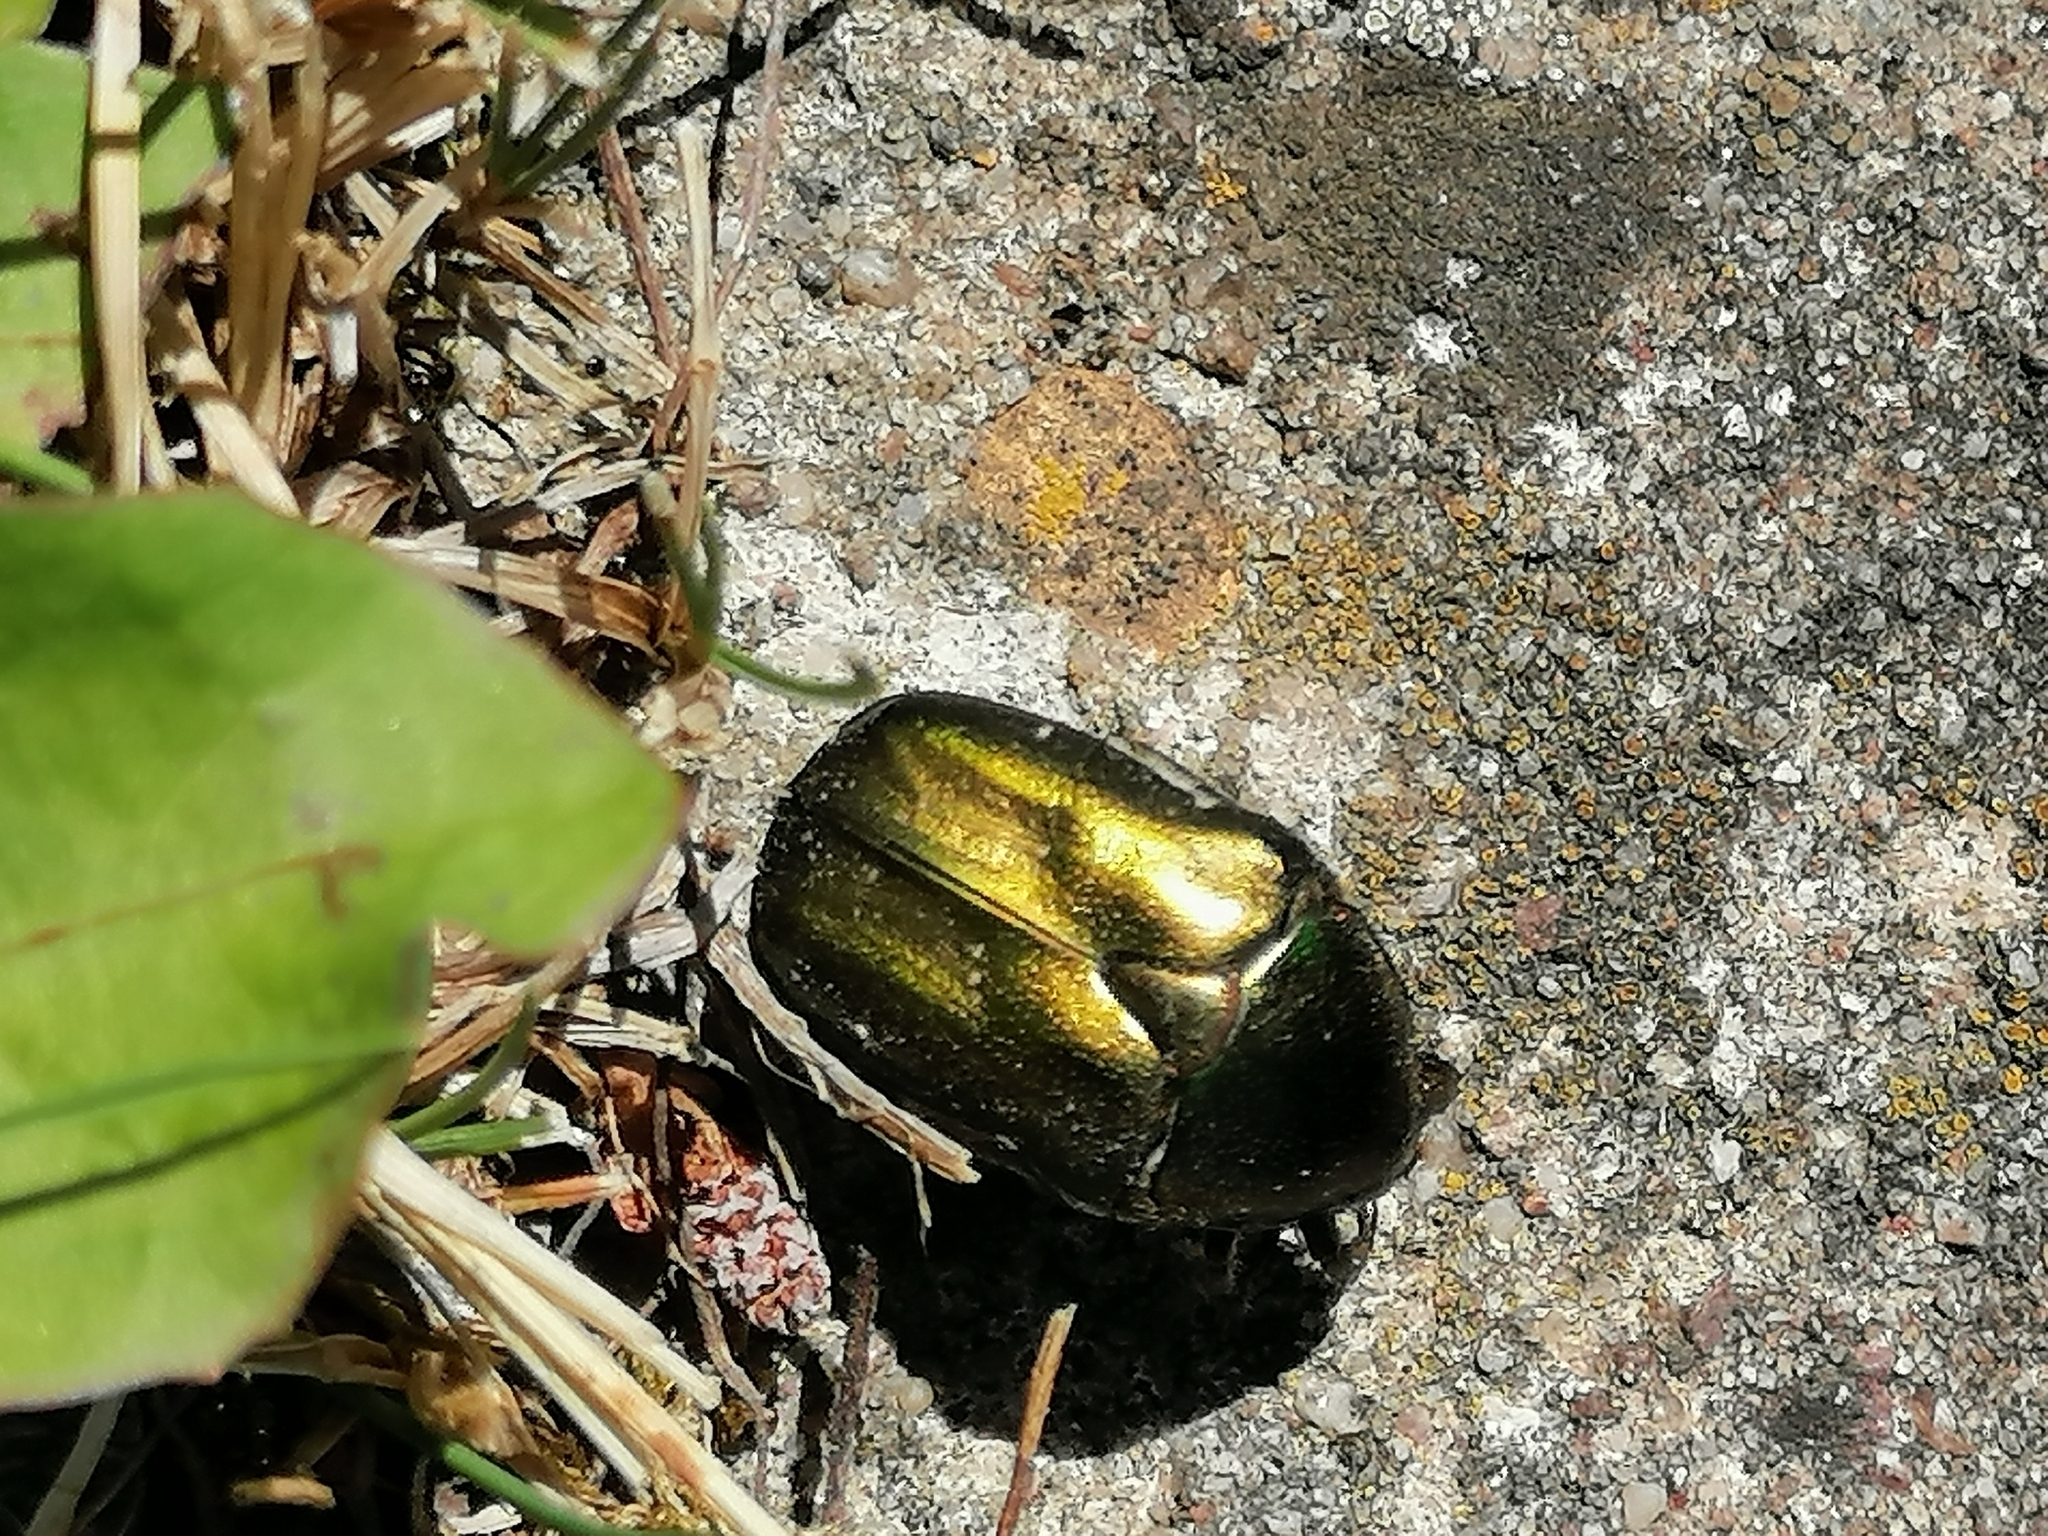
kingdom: Animalia
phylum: Arthropoda
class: Insecta
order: Coleoptera
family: Scarabaeidae
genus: Protaetia
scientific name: Protaetia cuprea
